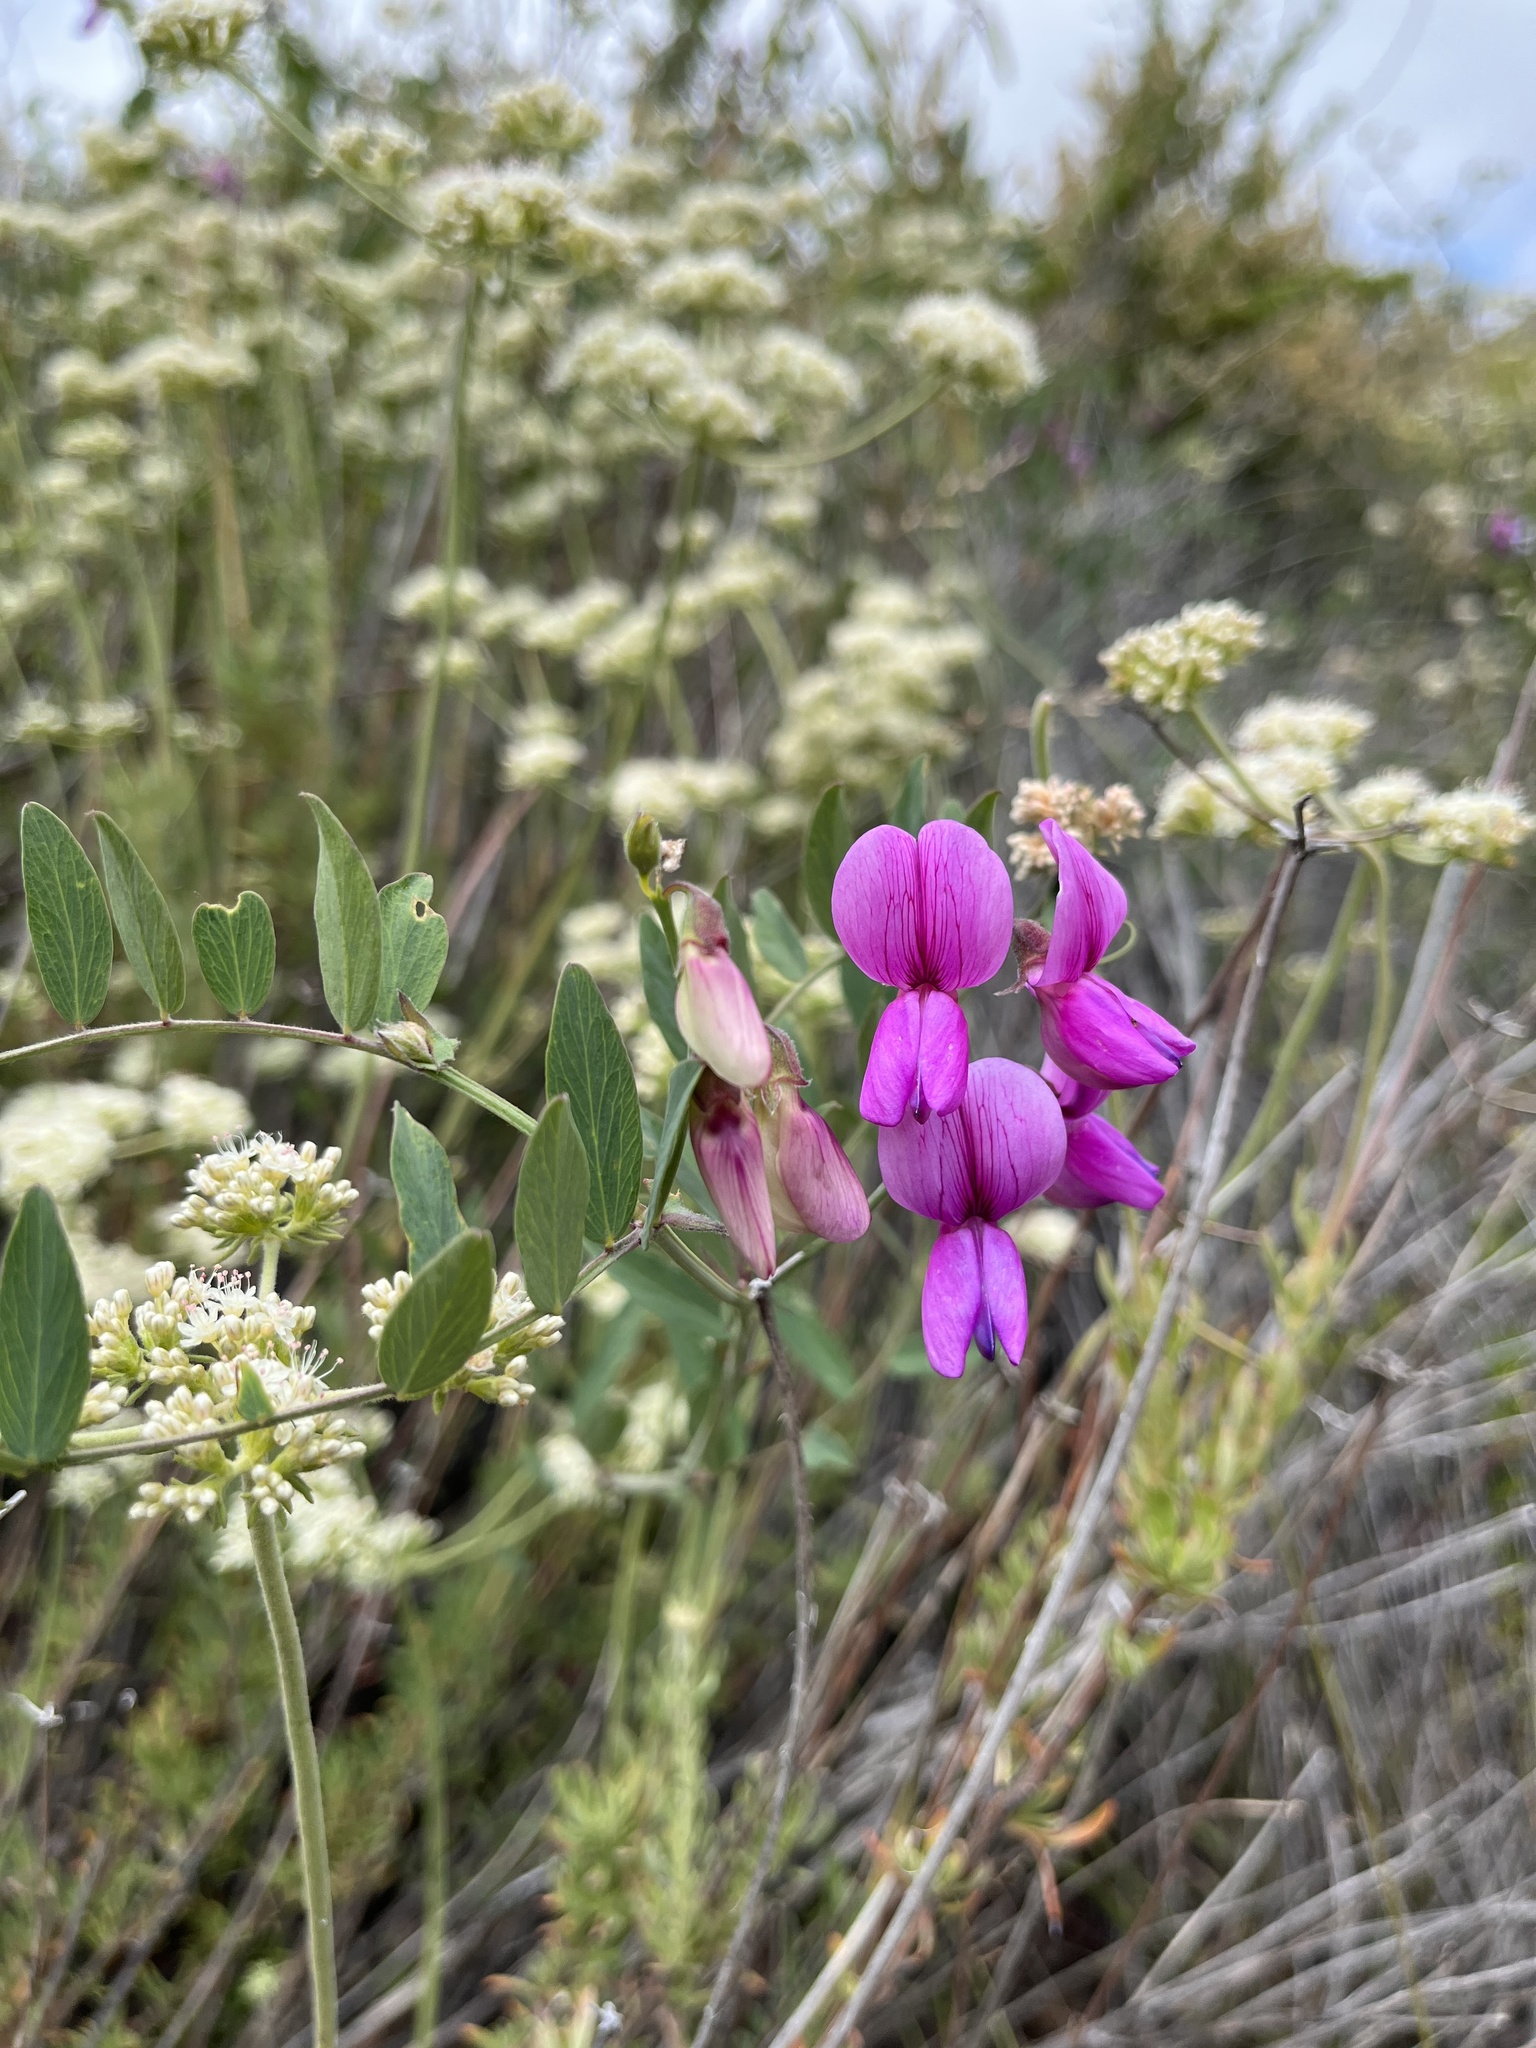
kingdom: Plantae
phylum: Tracheophyta
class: Magnoliopsida
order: Fabales
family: Fabaceae
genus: Lathyrus
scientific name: Lathyrus vestitus
